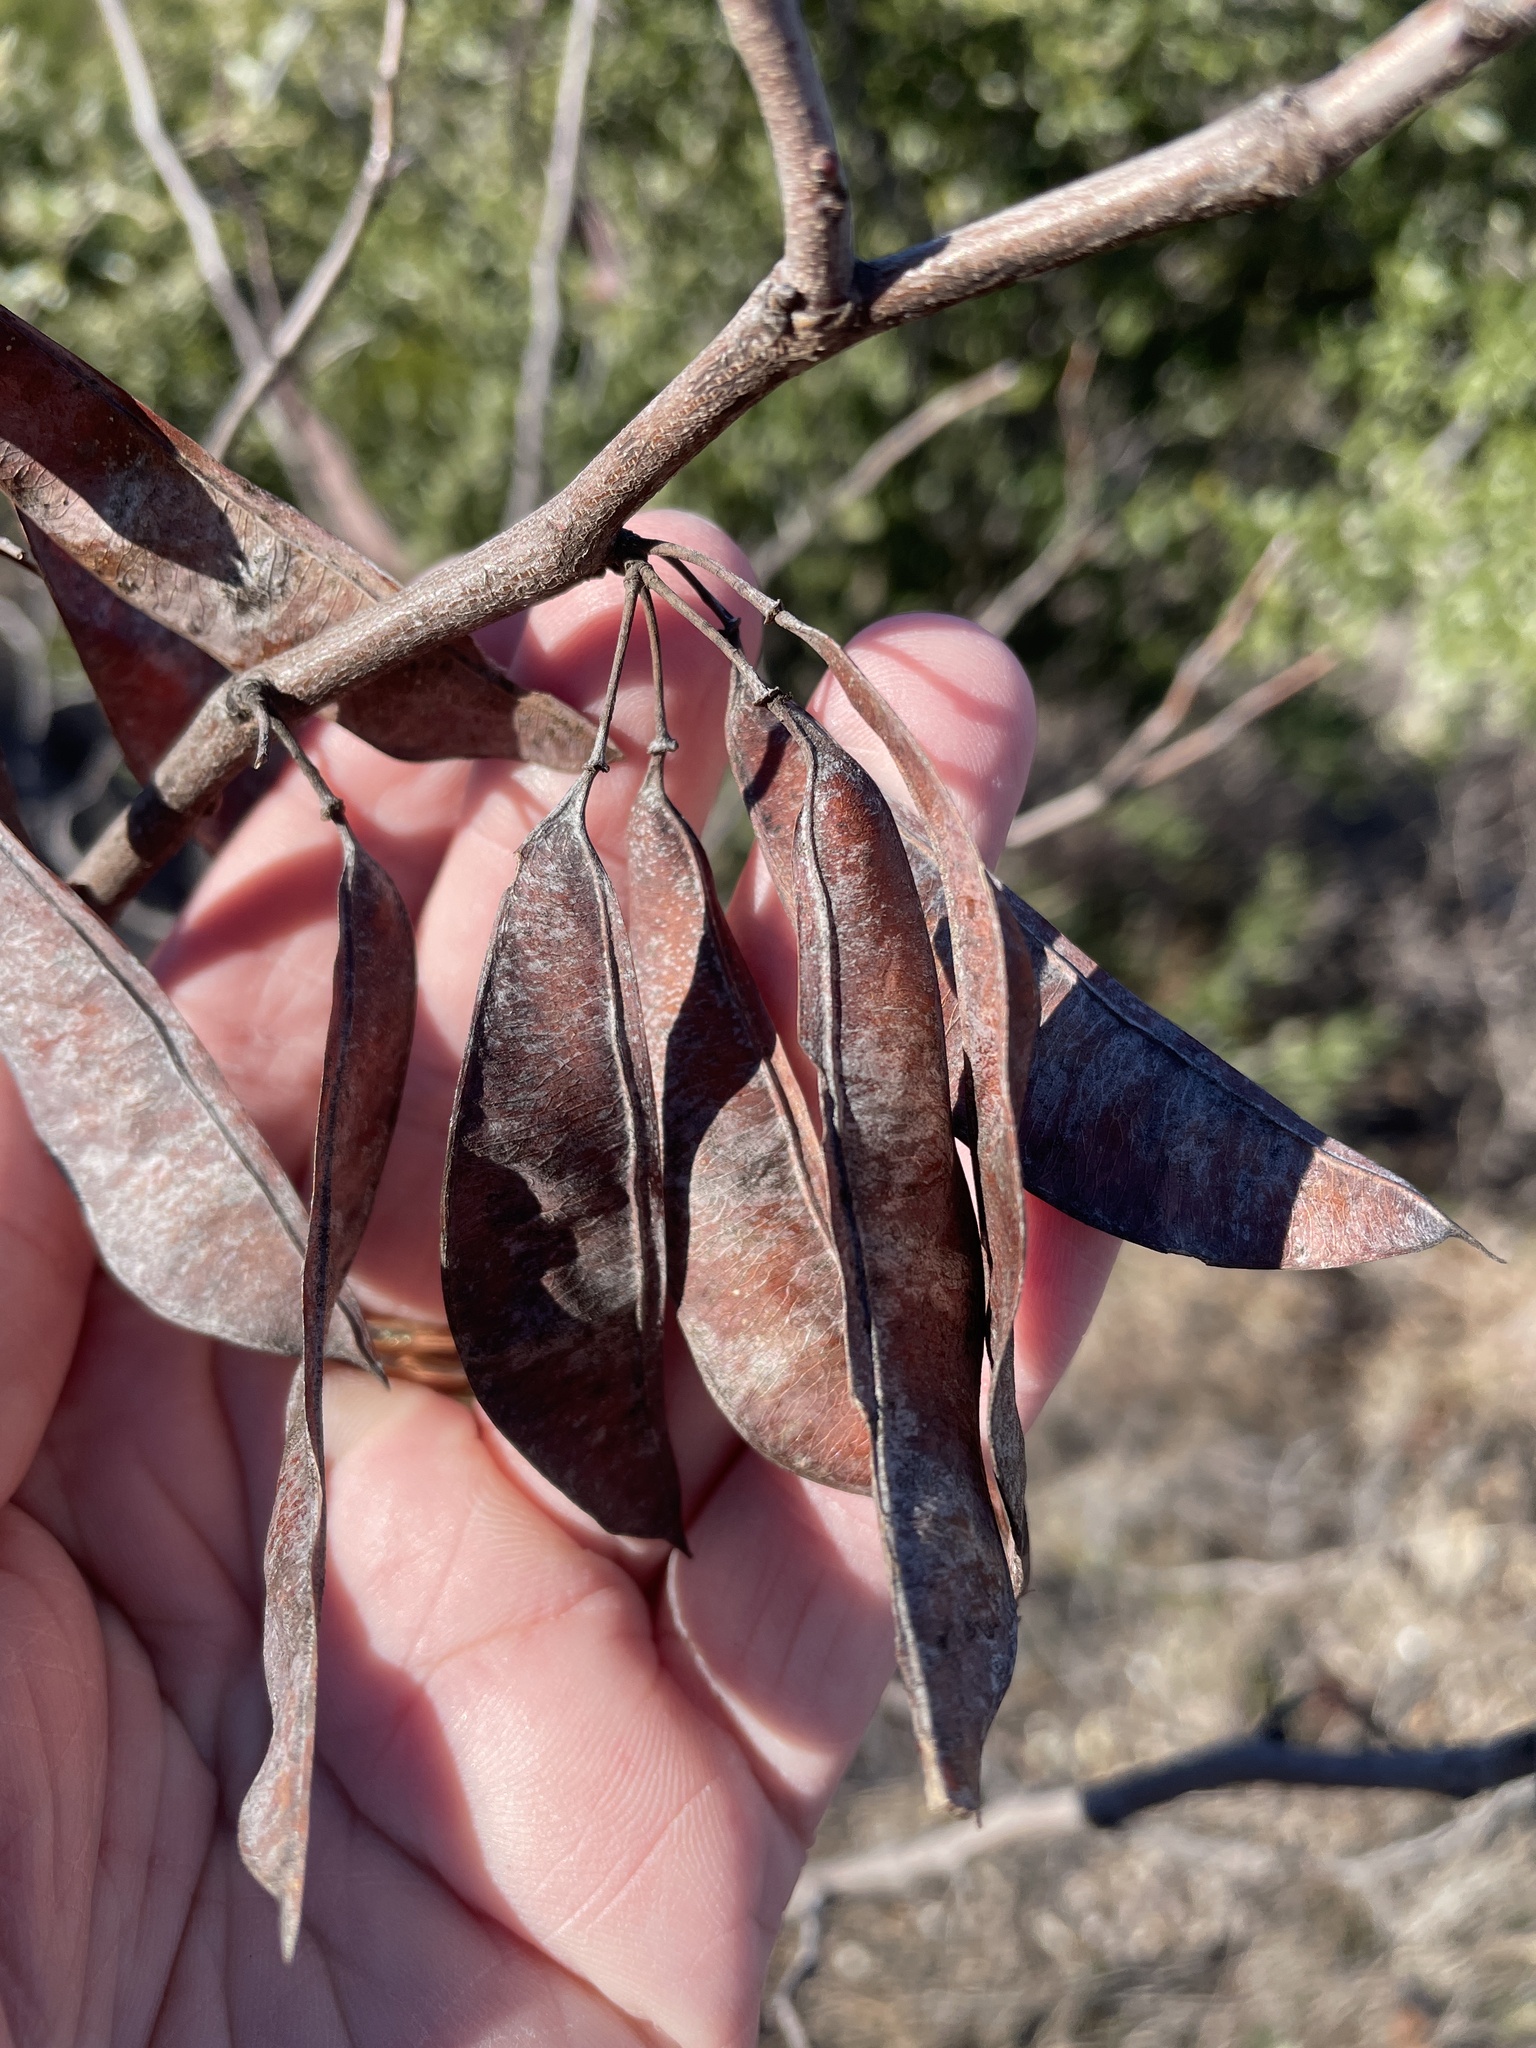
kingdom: Plantae
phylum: Tracheophyta
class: Magnoliopsida
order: Fabales
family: Fabaceae
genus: Cercis
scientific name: Cercis canadensis
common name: Eastern redbud
